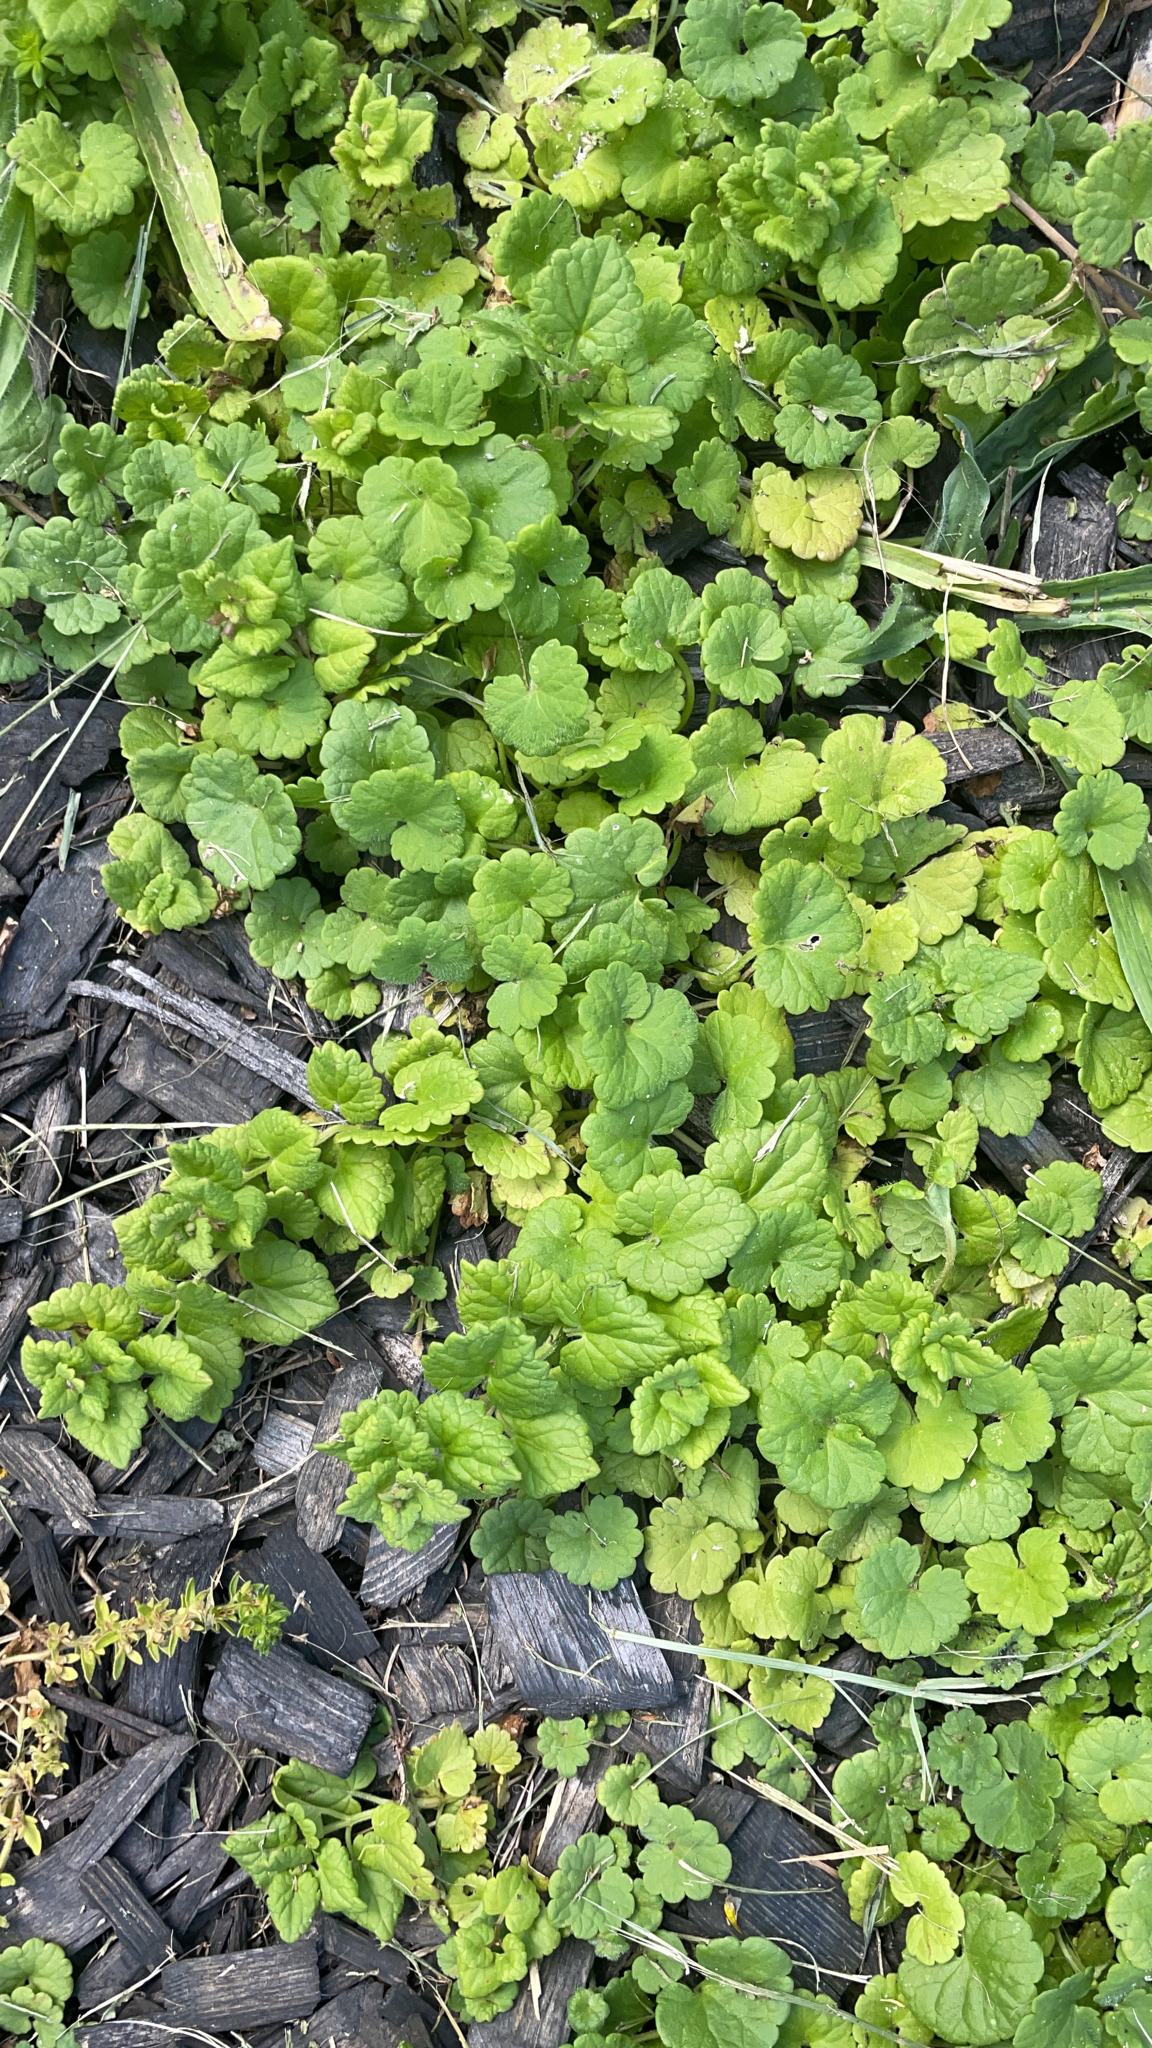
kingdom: Plantae
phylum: Tracheophyta
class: Magnoliopsida
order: Lamiales
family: Lamiaceae
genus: Glechoma
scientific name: Glechoma hederacea
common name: Ground ivy
